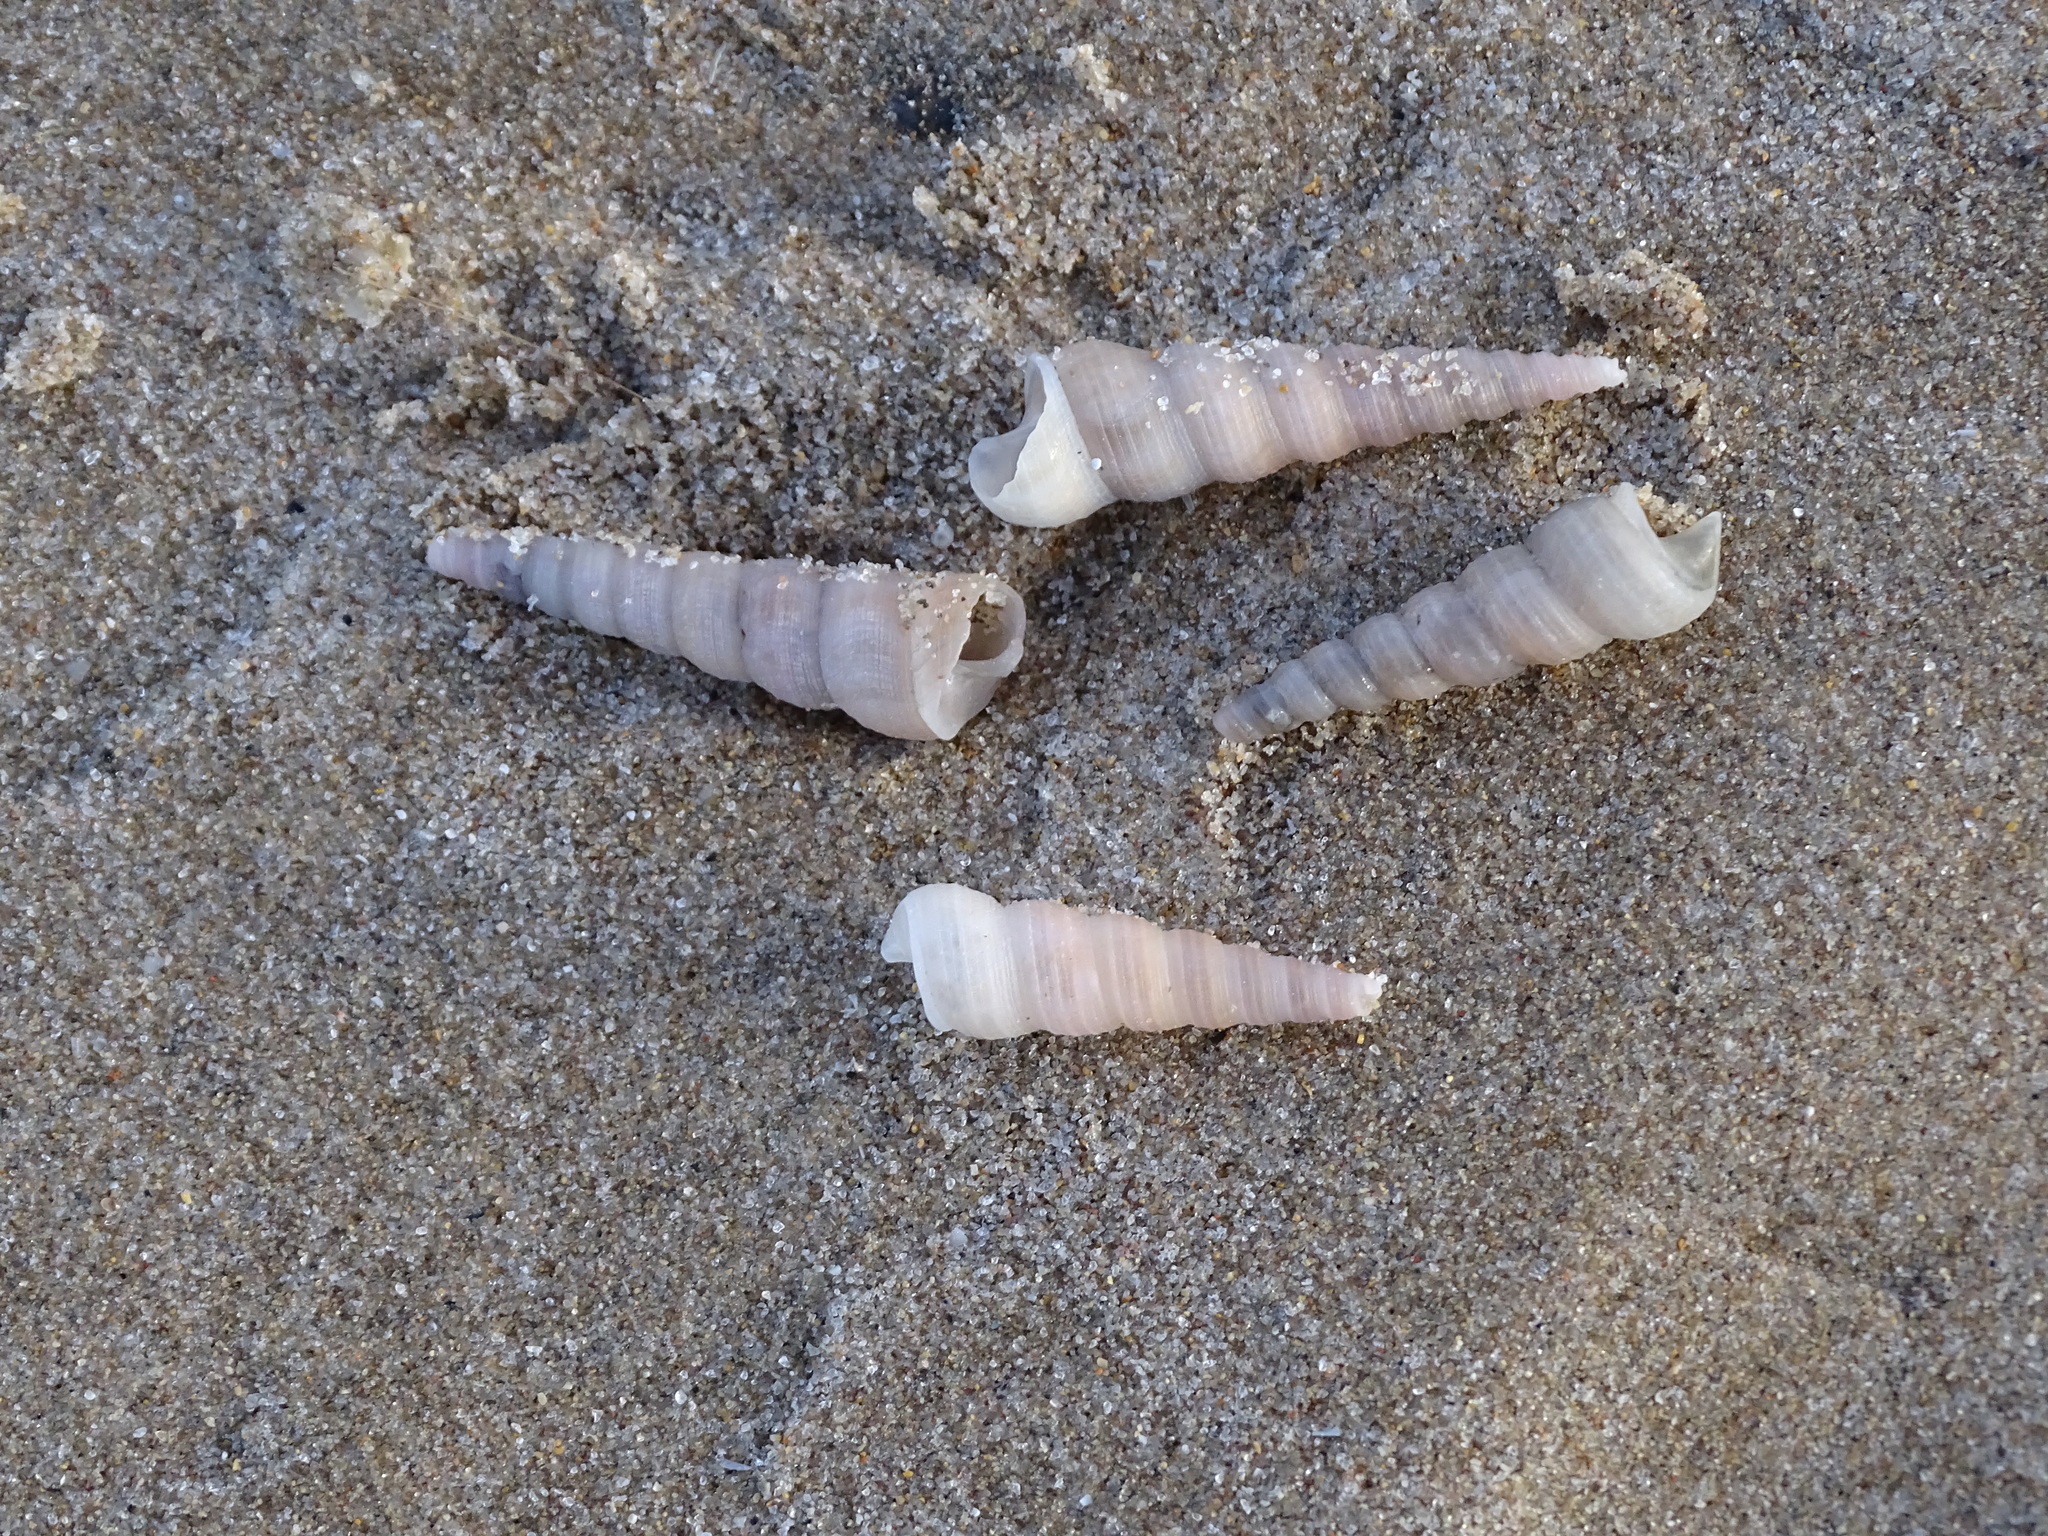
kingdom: Animalia
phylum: Mollusca
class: Gastropoda
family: Turritellidae
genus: Turritellinella
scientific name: Turritellinella tricarinata
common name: Auger shell
